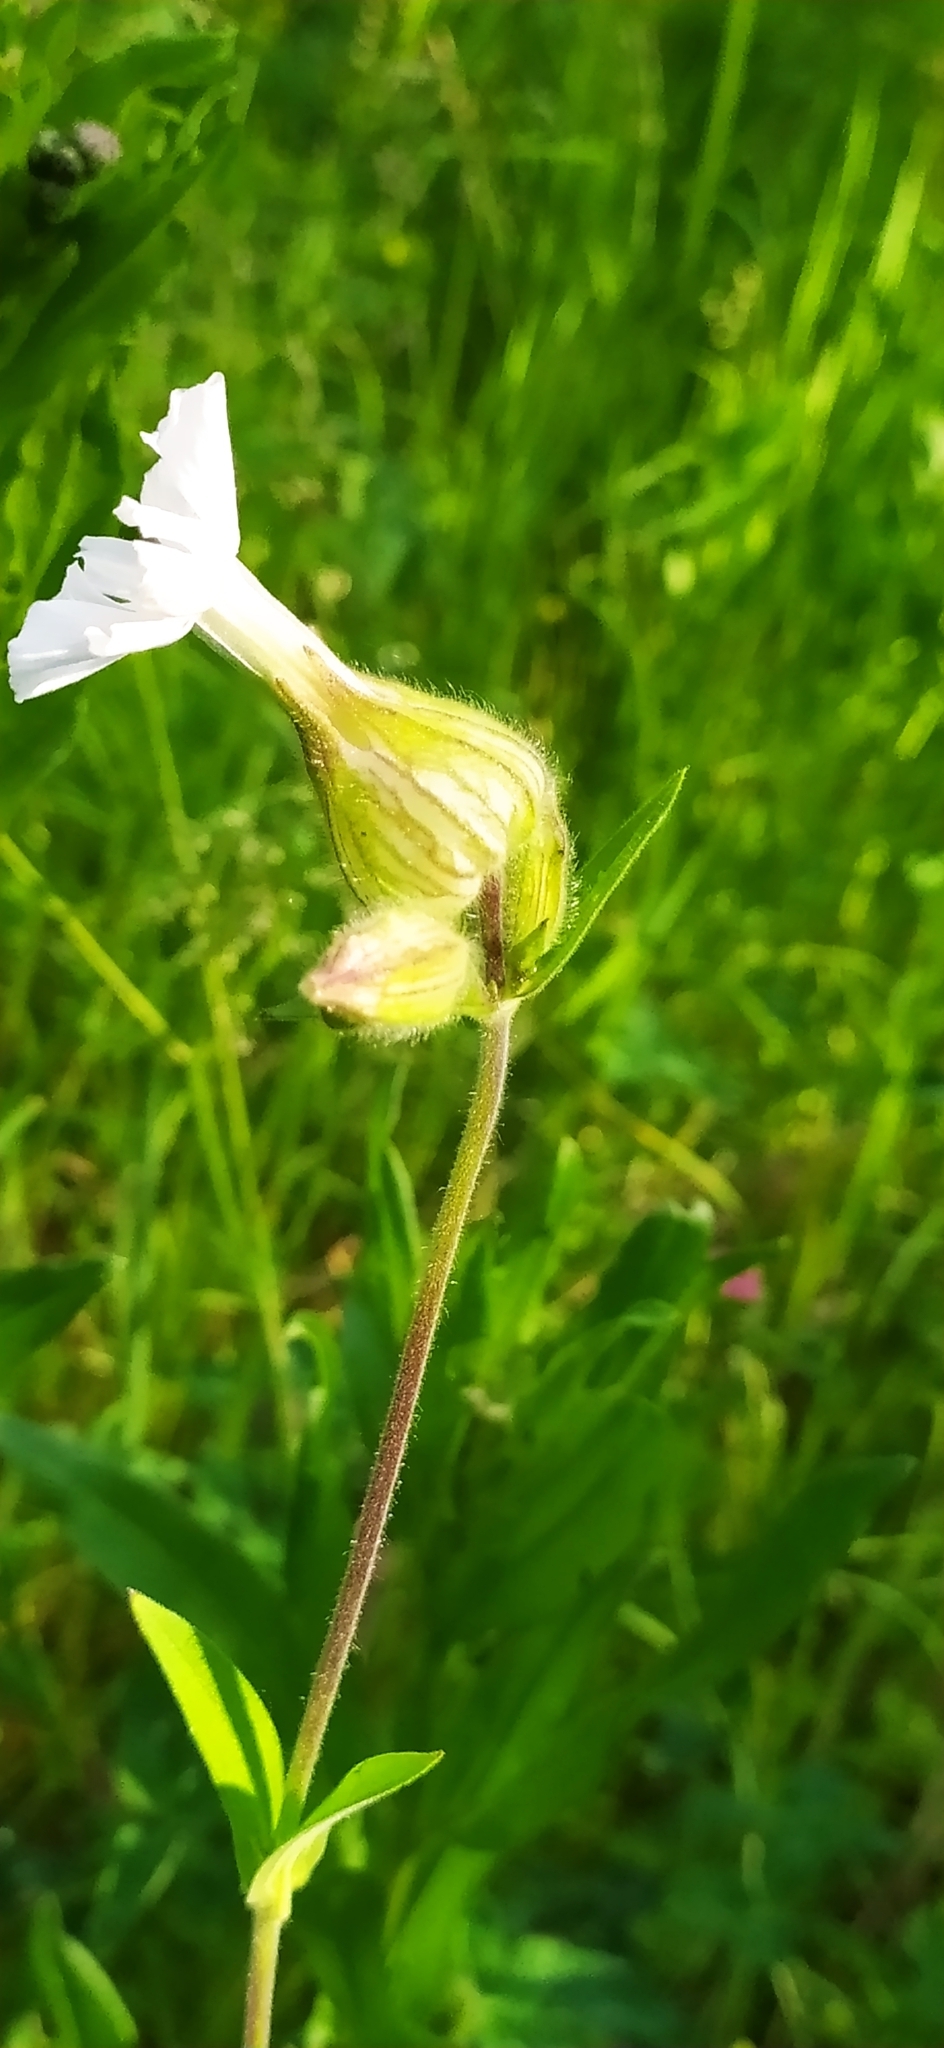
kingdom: Plantae
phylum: Tracheophyta
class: Magnoliopsida
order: Caryophyllales
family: Caryophyllaceae
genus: Silene
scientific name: Silene latifolia
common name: White campion
